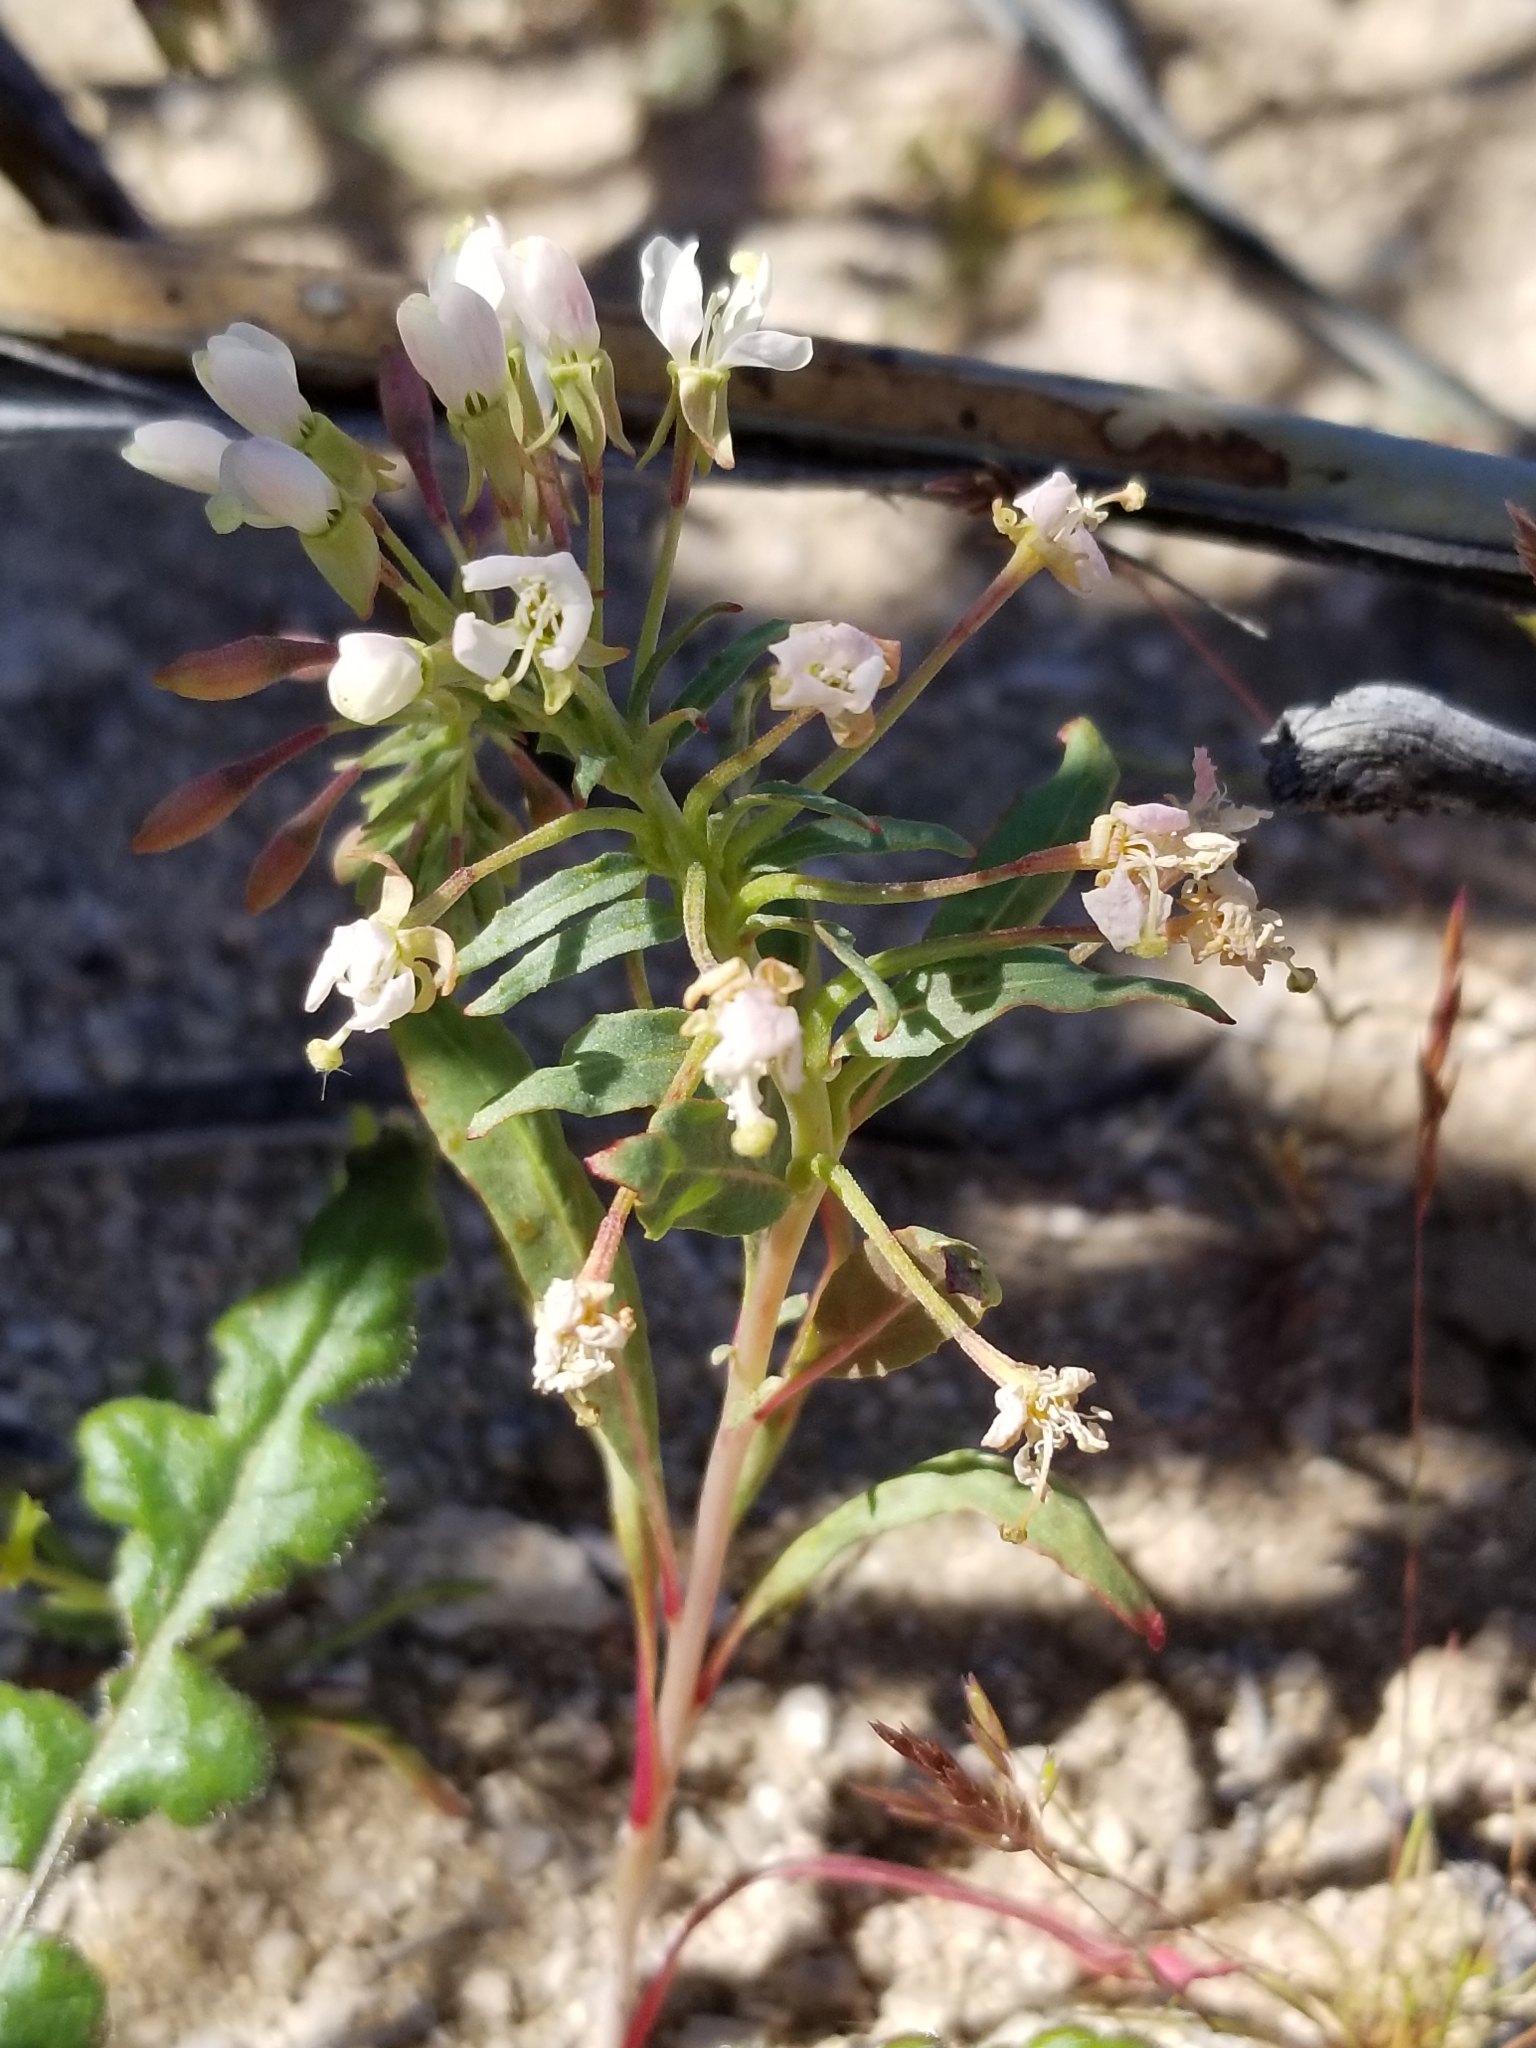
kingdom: Plantae
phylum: Tracheophyta
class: Magnoliopsida
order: Myrtales
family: Onagraceae
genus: Eremothera
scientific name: Eremothera boothii
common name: Booth's evening primrose
